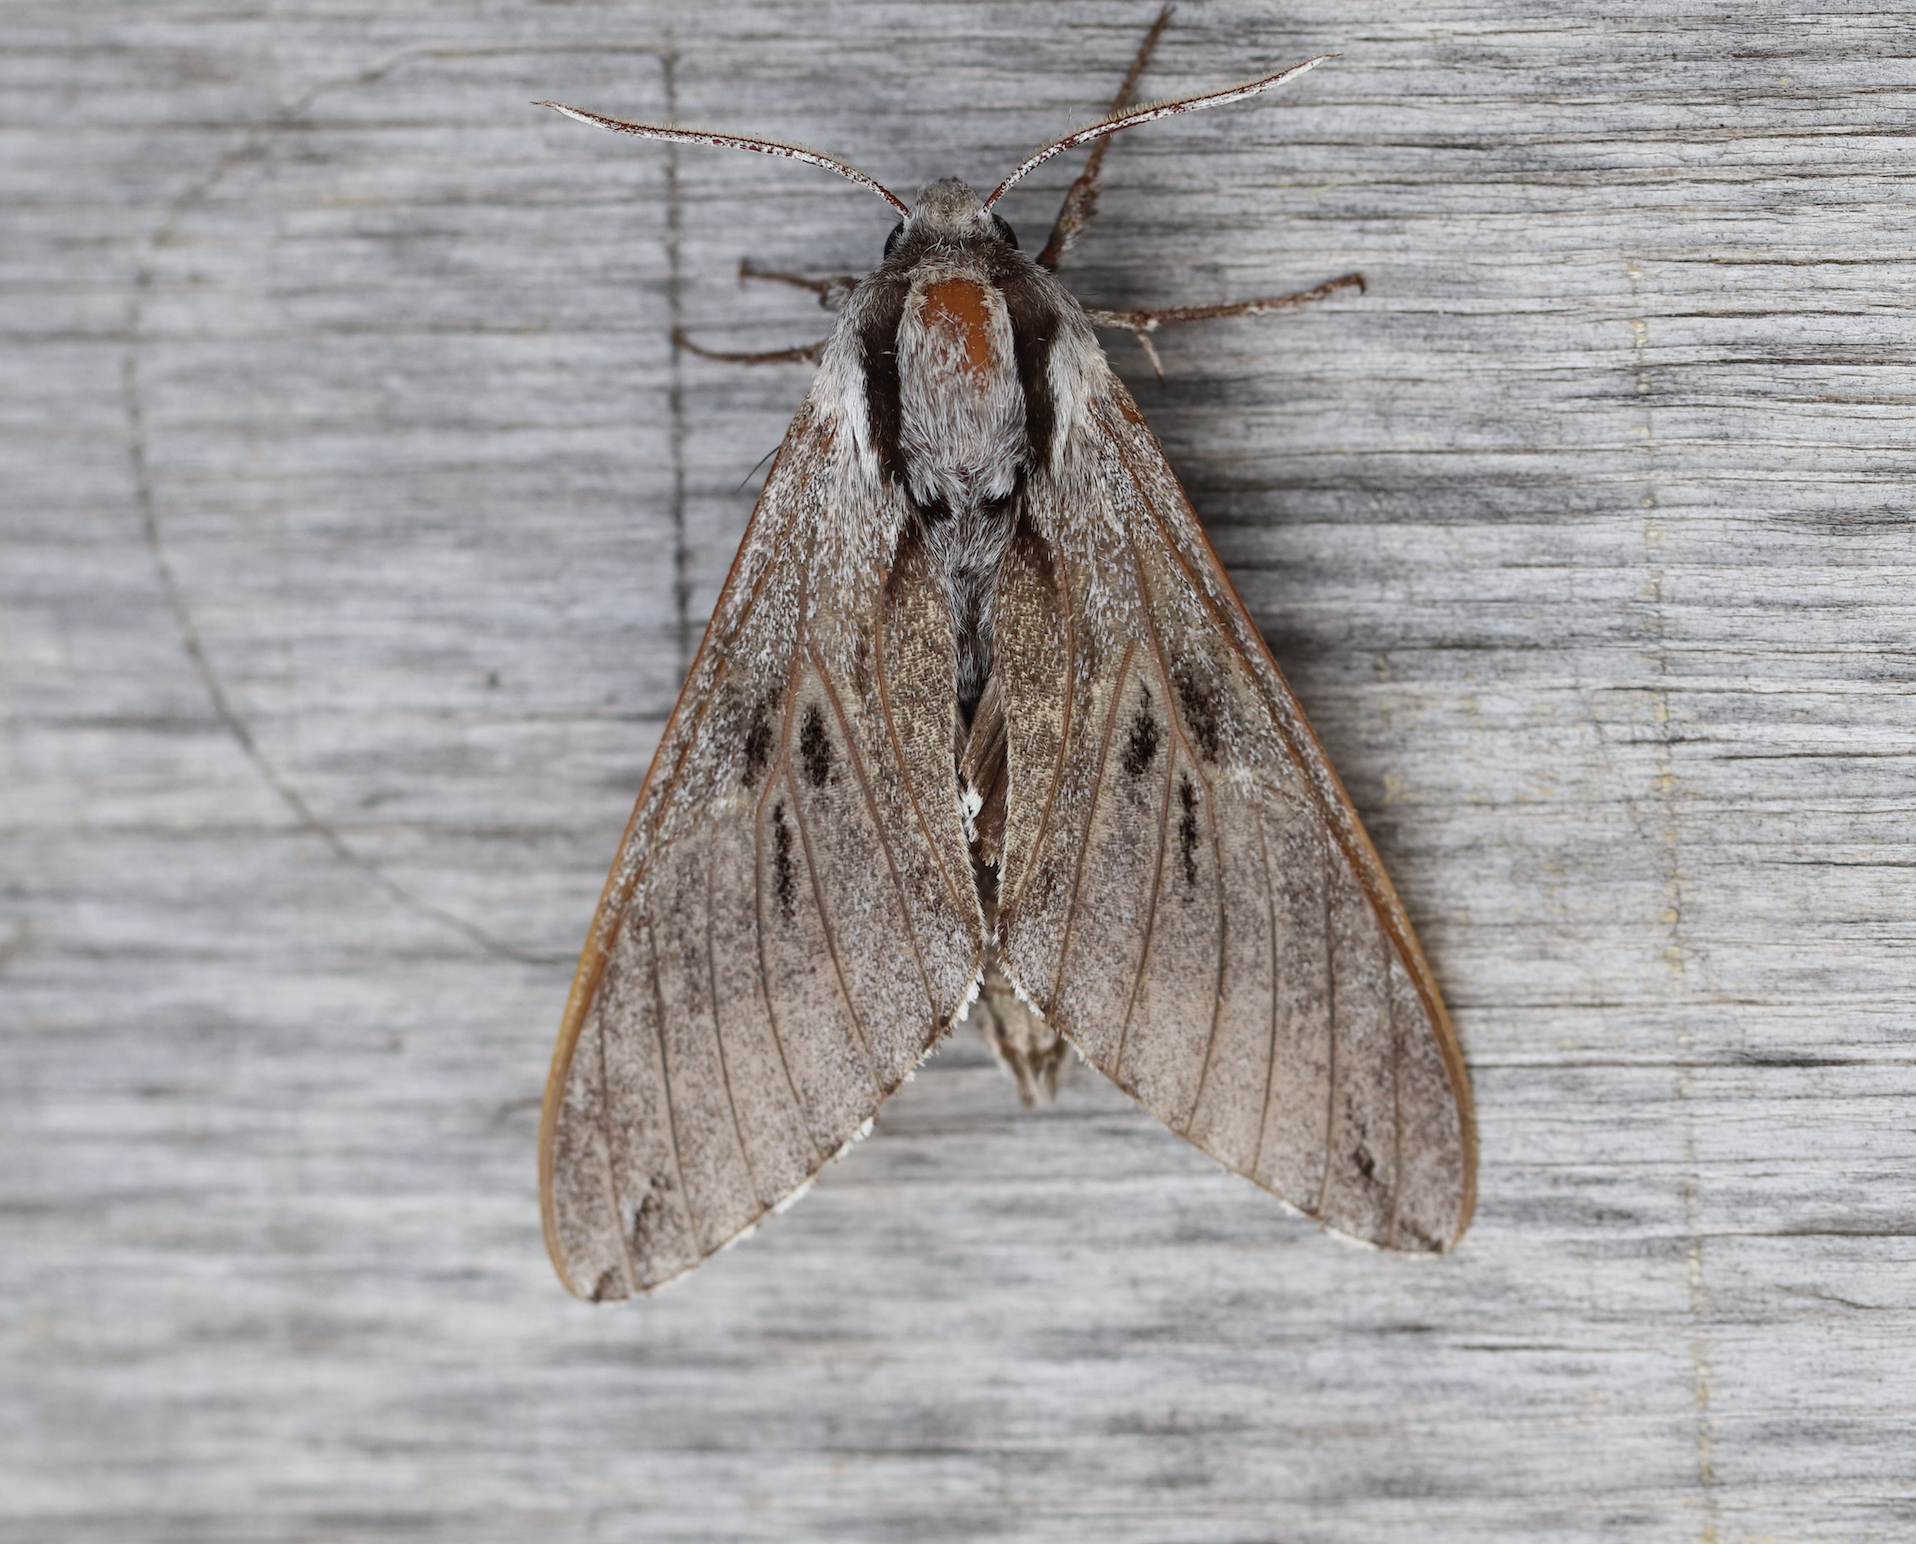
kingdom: Animalia
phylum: Arthropoda
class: Insecta
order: Lepidoptera
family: Sphingidae
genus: Sphinx
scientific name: Sphinx pinastri
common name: Pine hawk-moth
